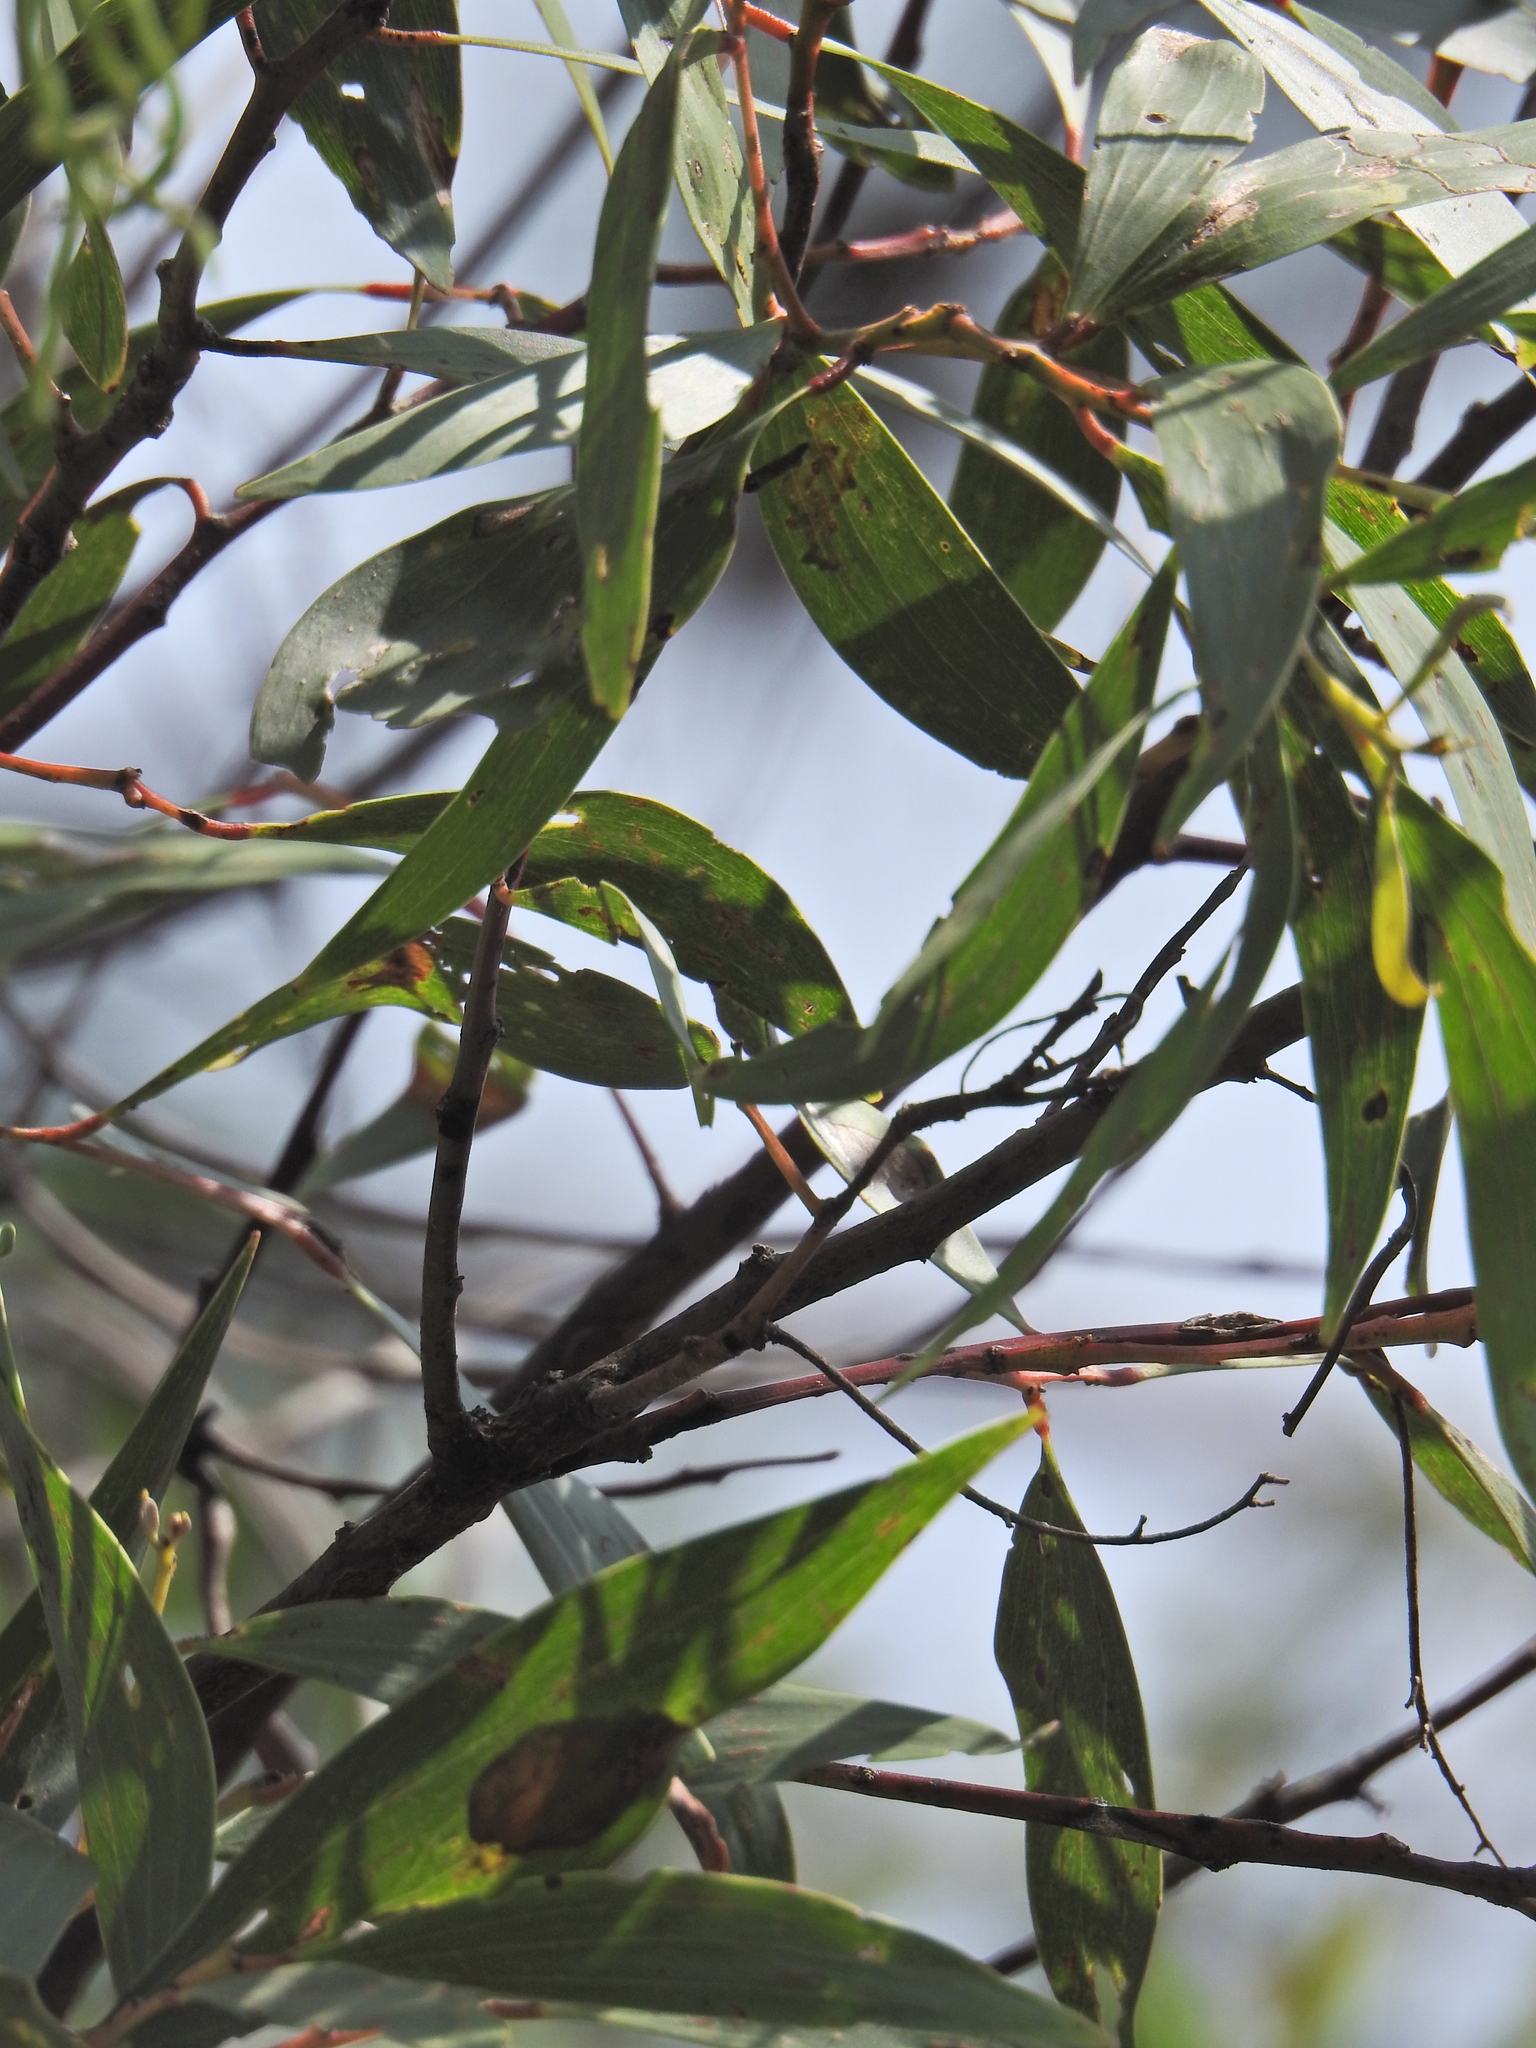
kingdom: Plantae
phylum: Tracheophyta
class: Magnoliopsida
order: Fabales
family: Fabaceae
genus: Acacia
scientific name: Acacia leiocalyx
